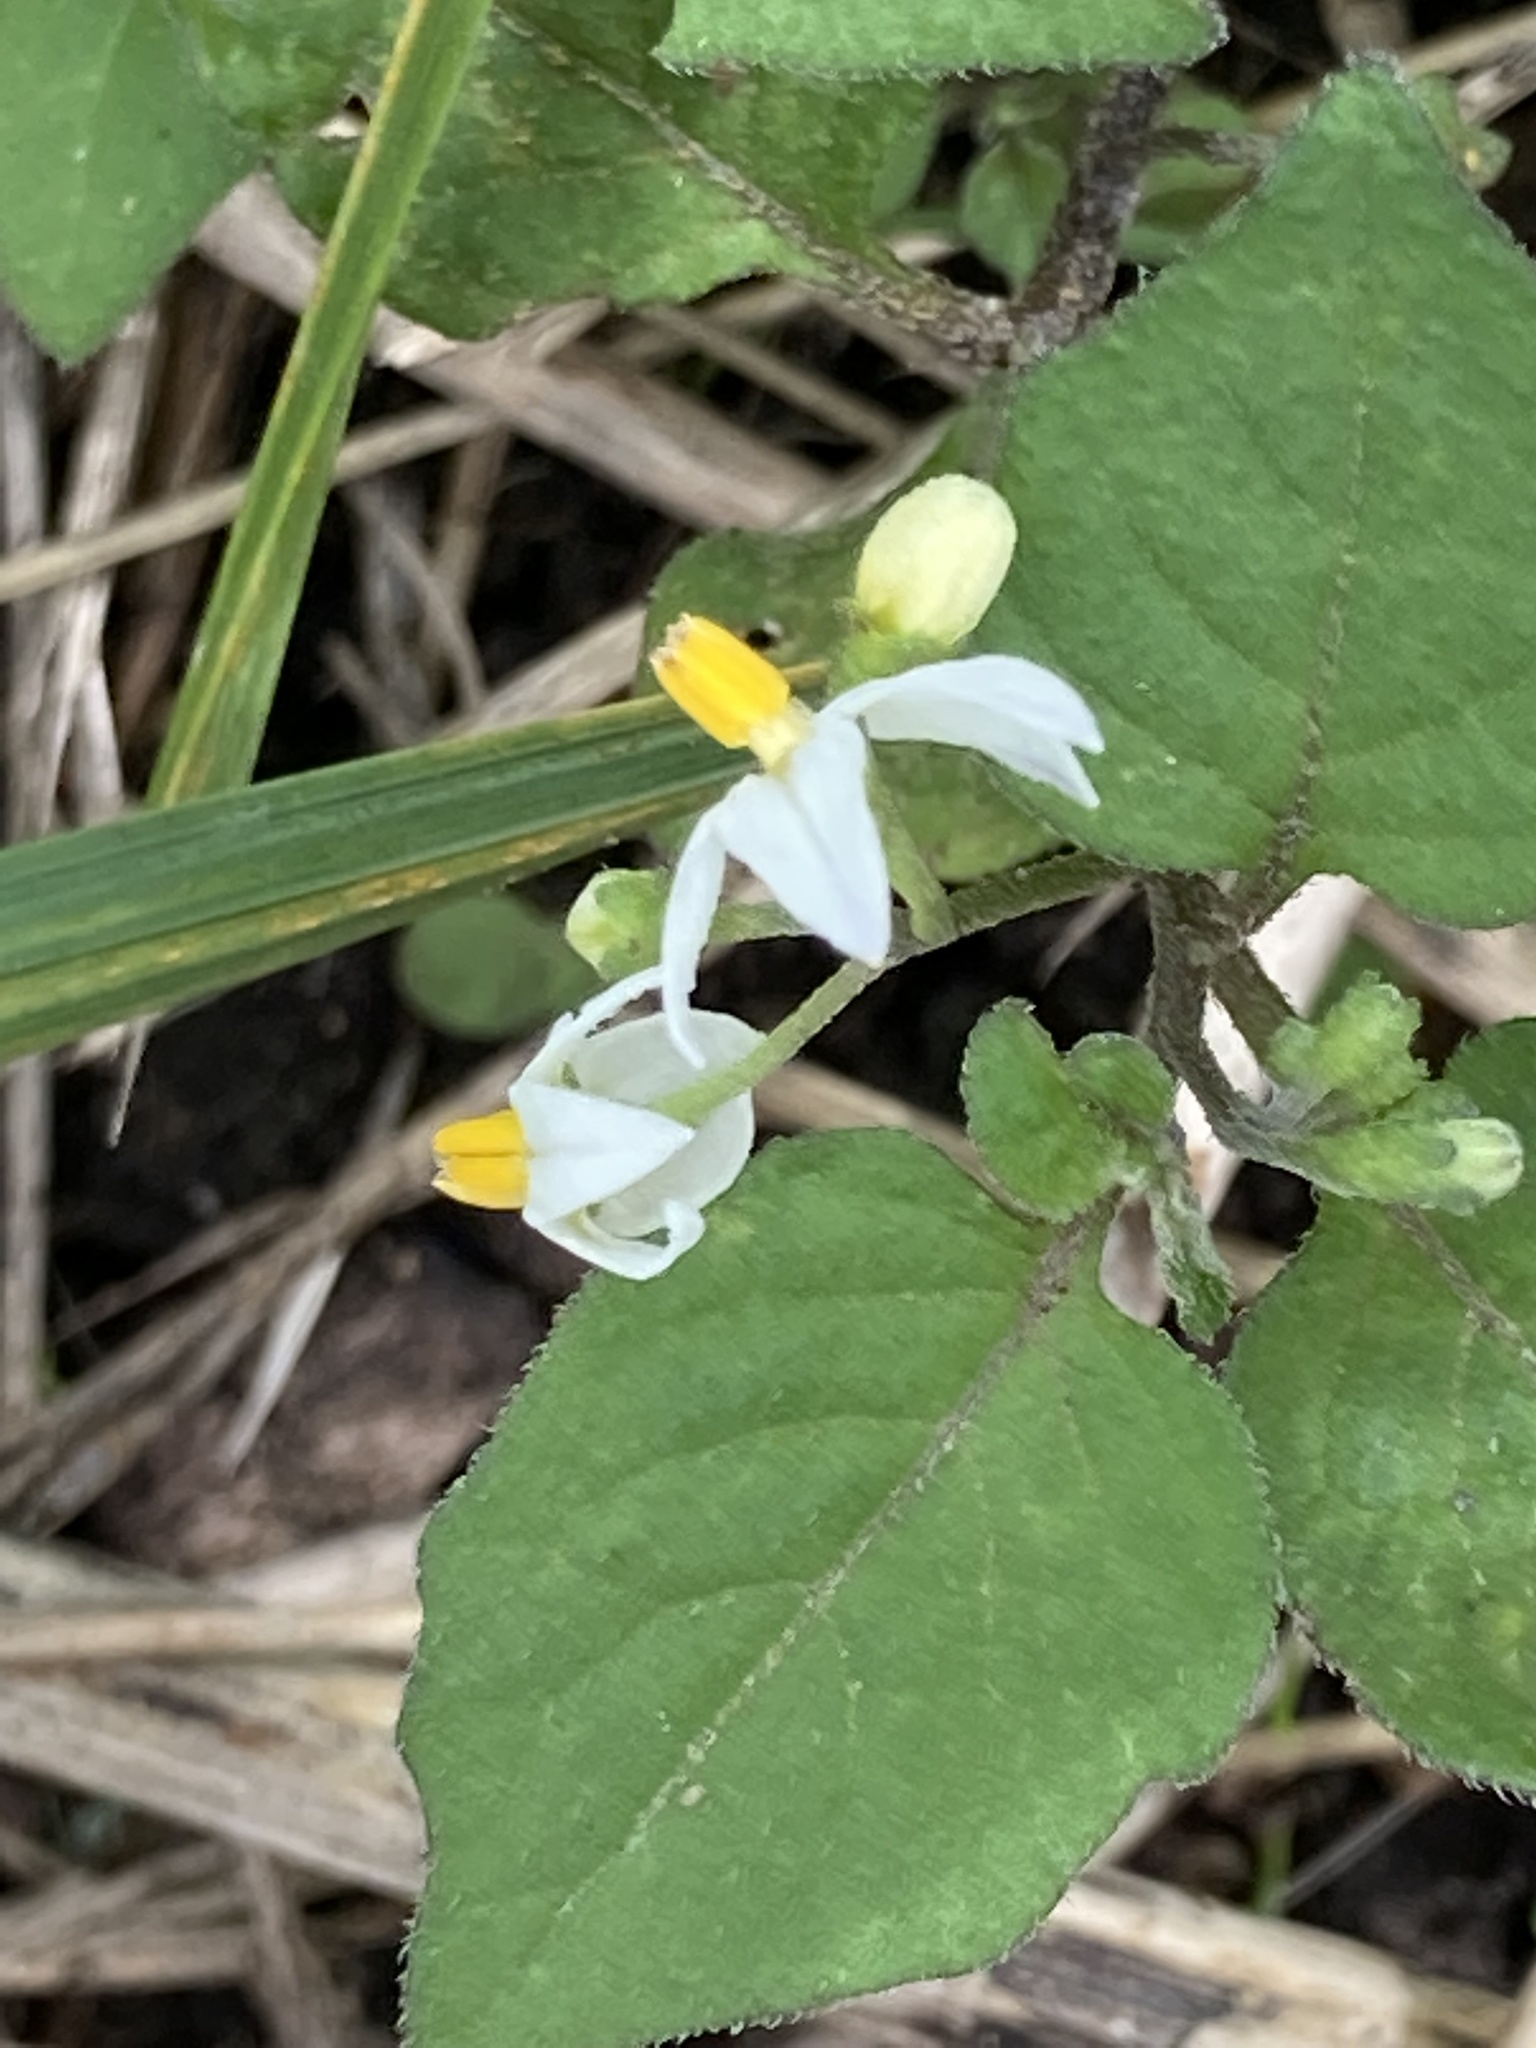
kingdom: Plantae
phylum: Tracheophyta
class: Magnoliopsida
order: Solanales
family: Solanaceae
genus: Solanum
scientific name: Solanum nigrum
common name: Black nightshade
